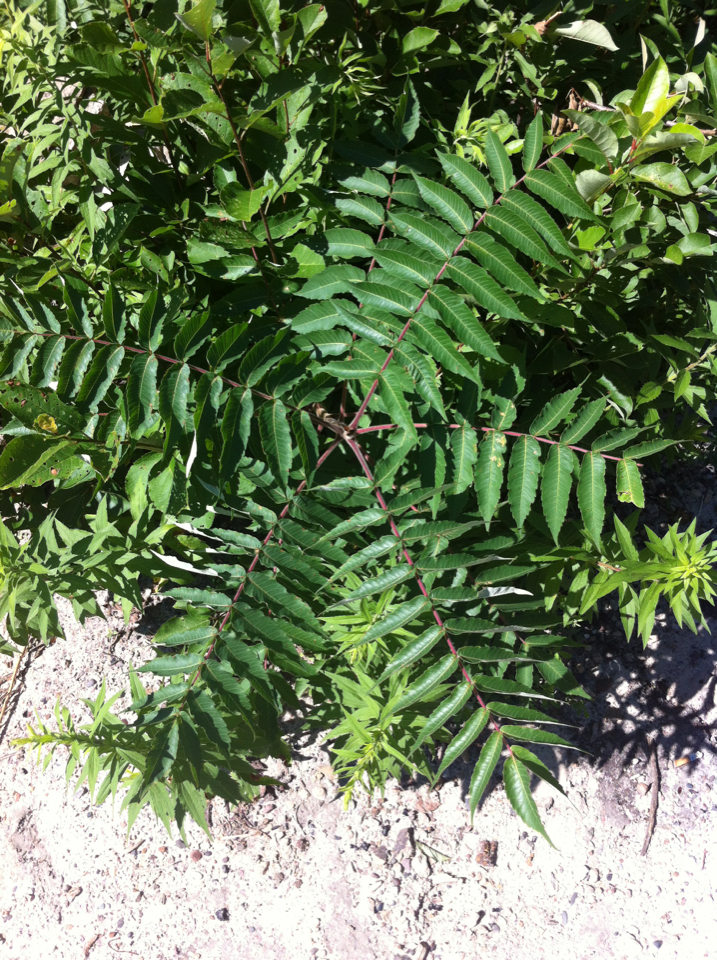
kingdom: Plantae
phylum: Tracheophyta
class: Magnoliopsida
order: Sapindales
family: Anacardiaceae
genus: Rhus
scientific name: Rhus typhina
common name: Staghorn sumac
